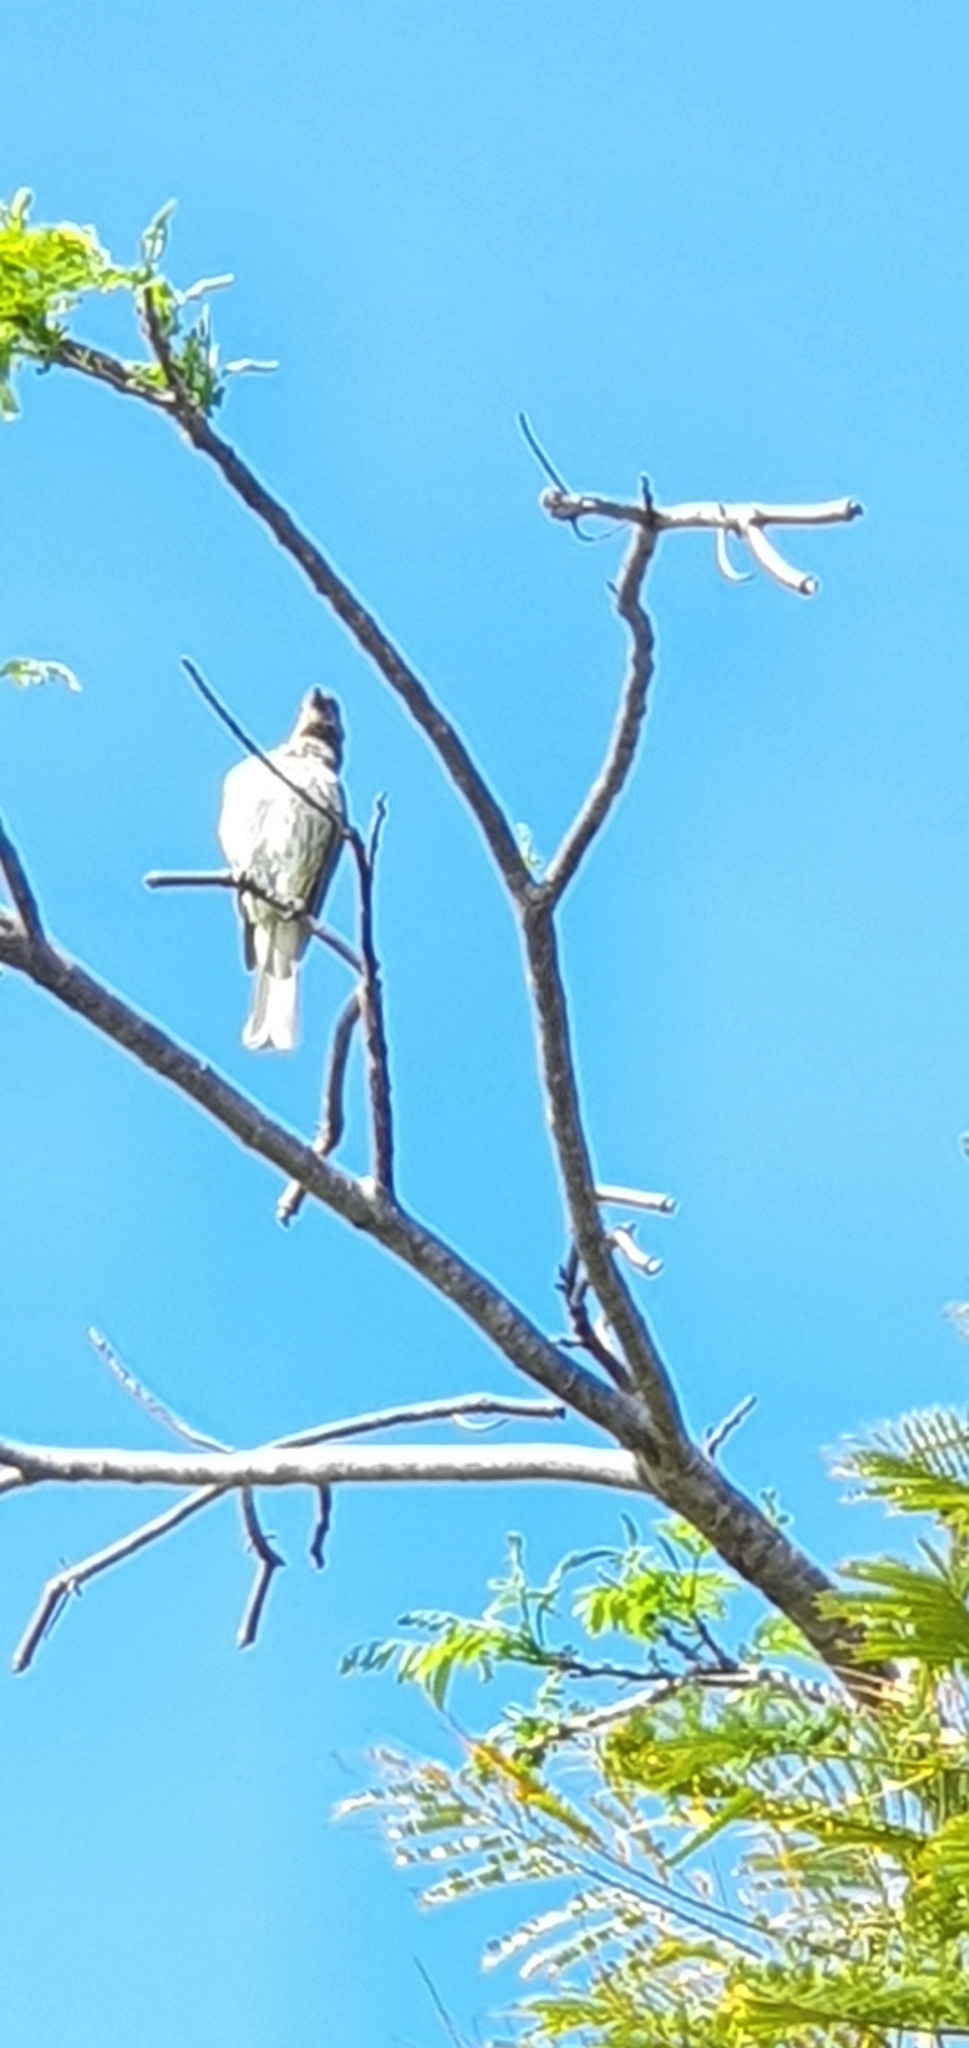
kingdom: Animalia
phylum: Chordata
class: Aves
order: Passeriformes
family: Oriolidae
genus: Sphecotheres
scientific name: Sphecotheres vieilloti
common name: Australasian figbird
